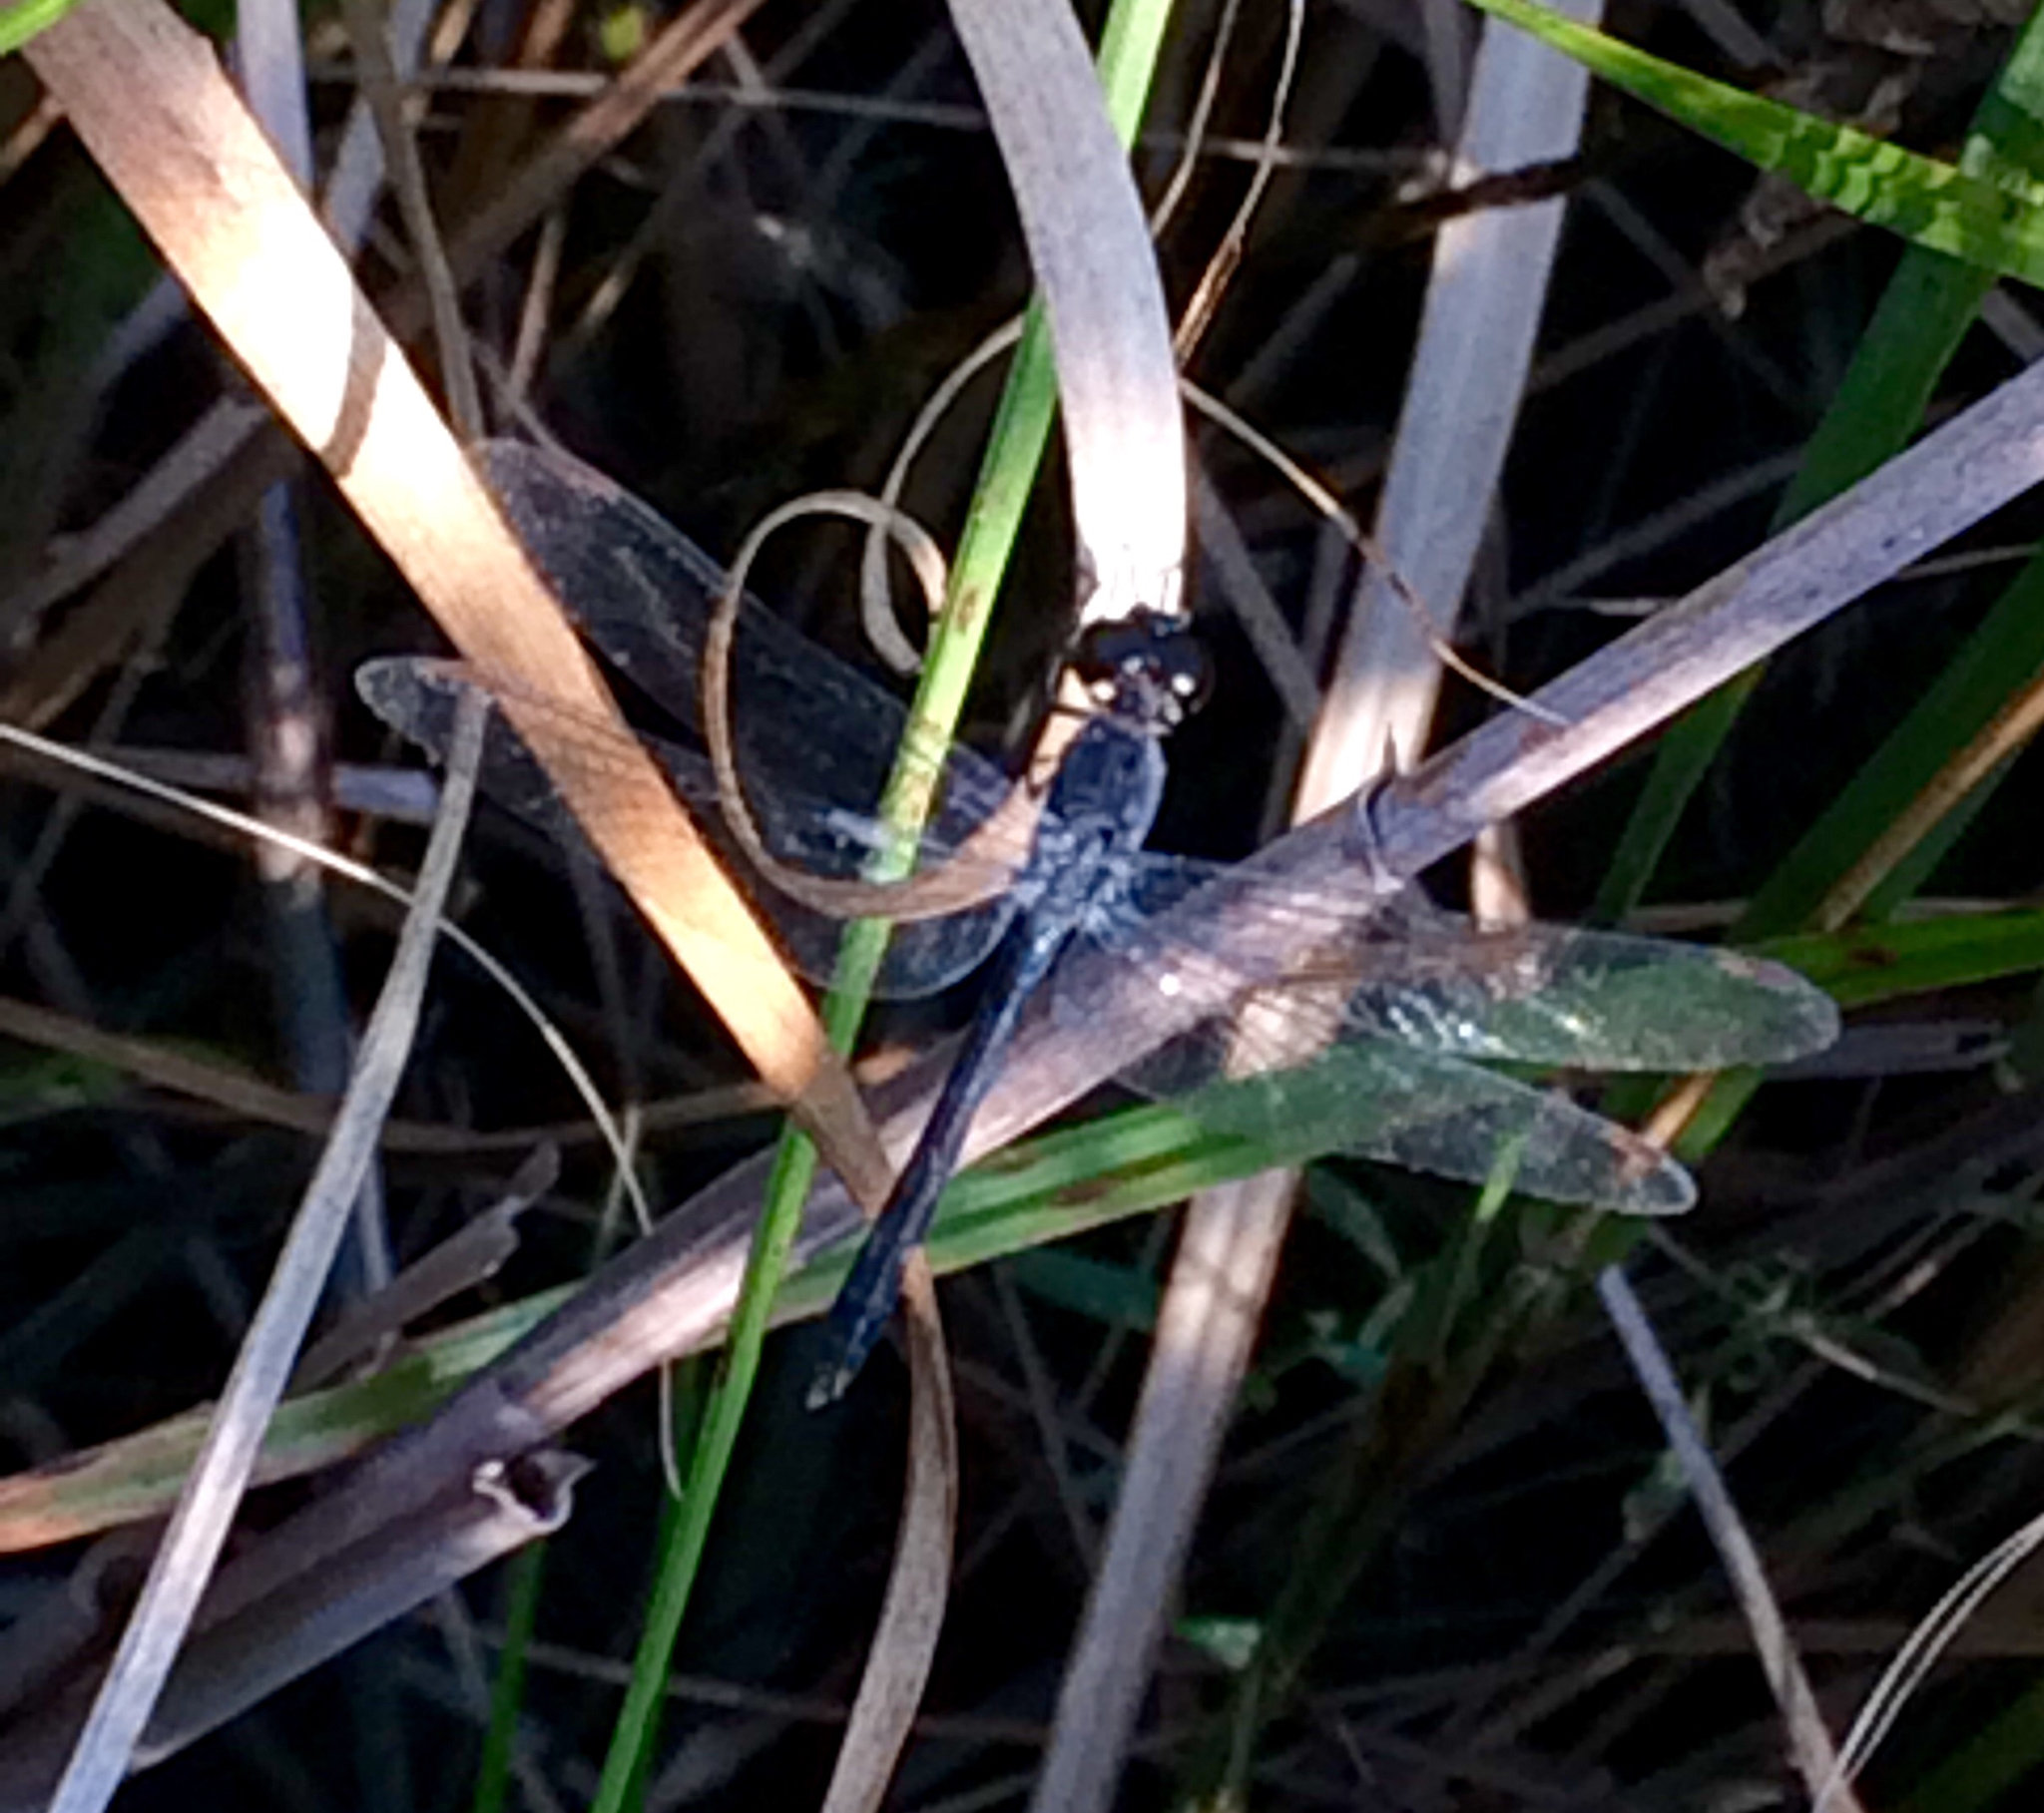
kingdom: Animalia
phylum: Arthropoda
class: Insecta
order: Odonata
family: Libellulidae
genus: Erythrodiplax
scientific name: Erythrodiplax berenice
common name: Seaside dragonlet
